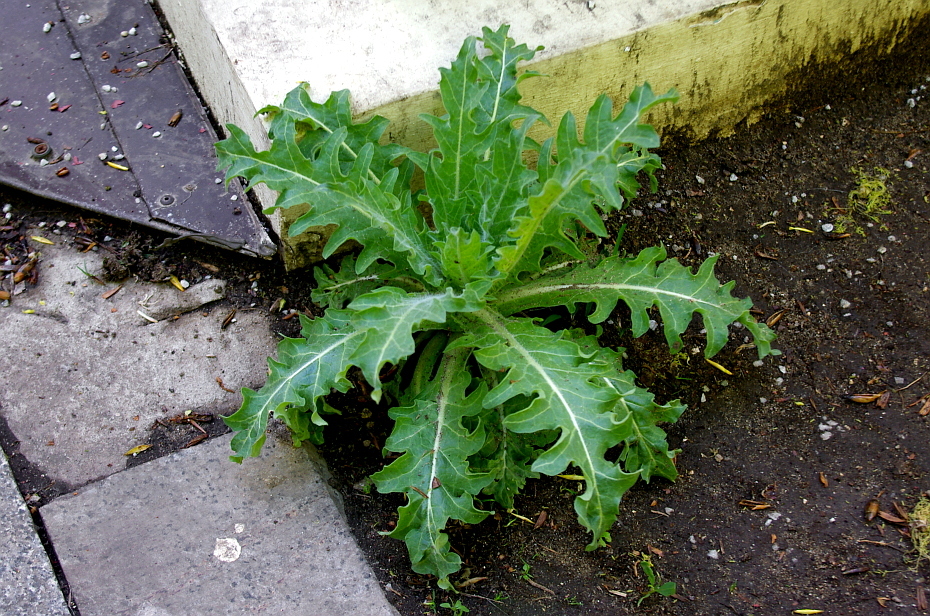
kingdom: Plantae
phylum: Tracheophyta
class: Magnoliopsida
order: Solanales
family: Solanaceae
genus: Hyoscyamus
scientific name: Hyoscyamus niger
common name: Henbane
